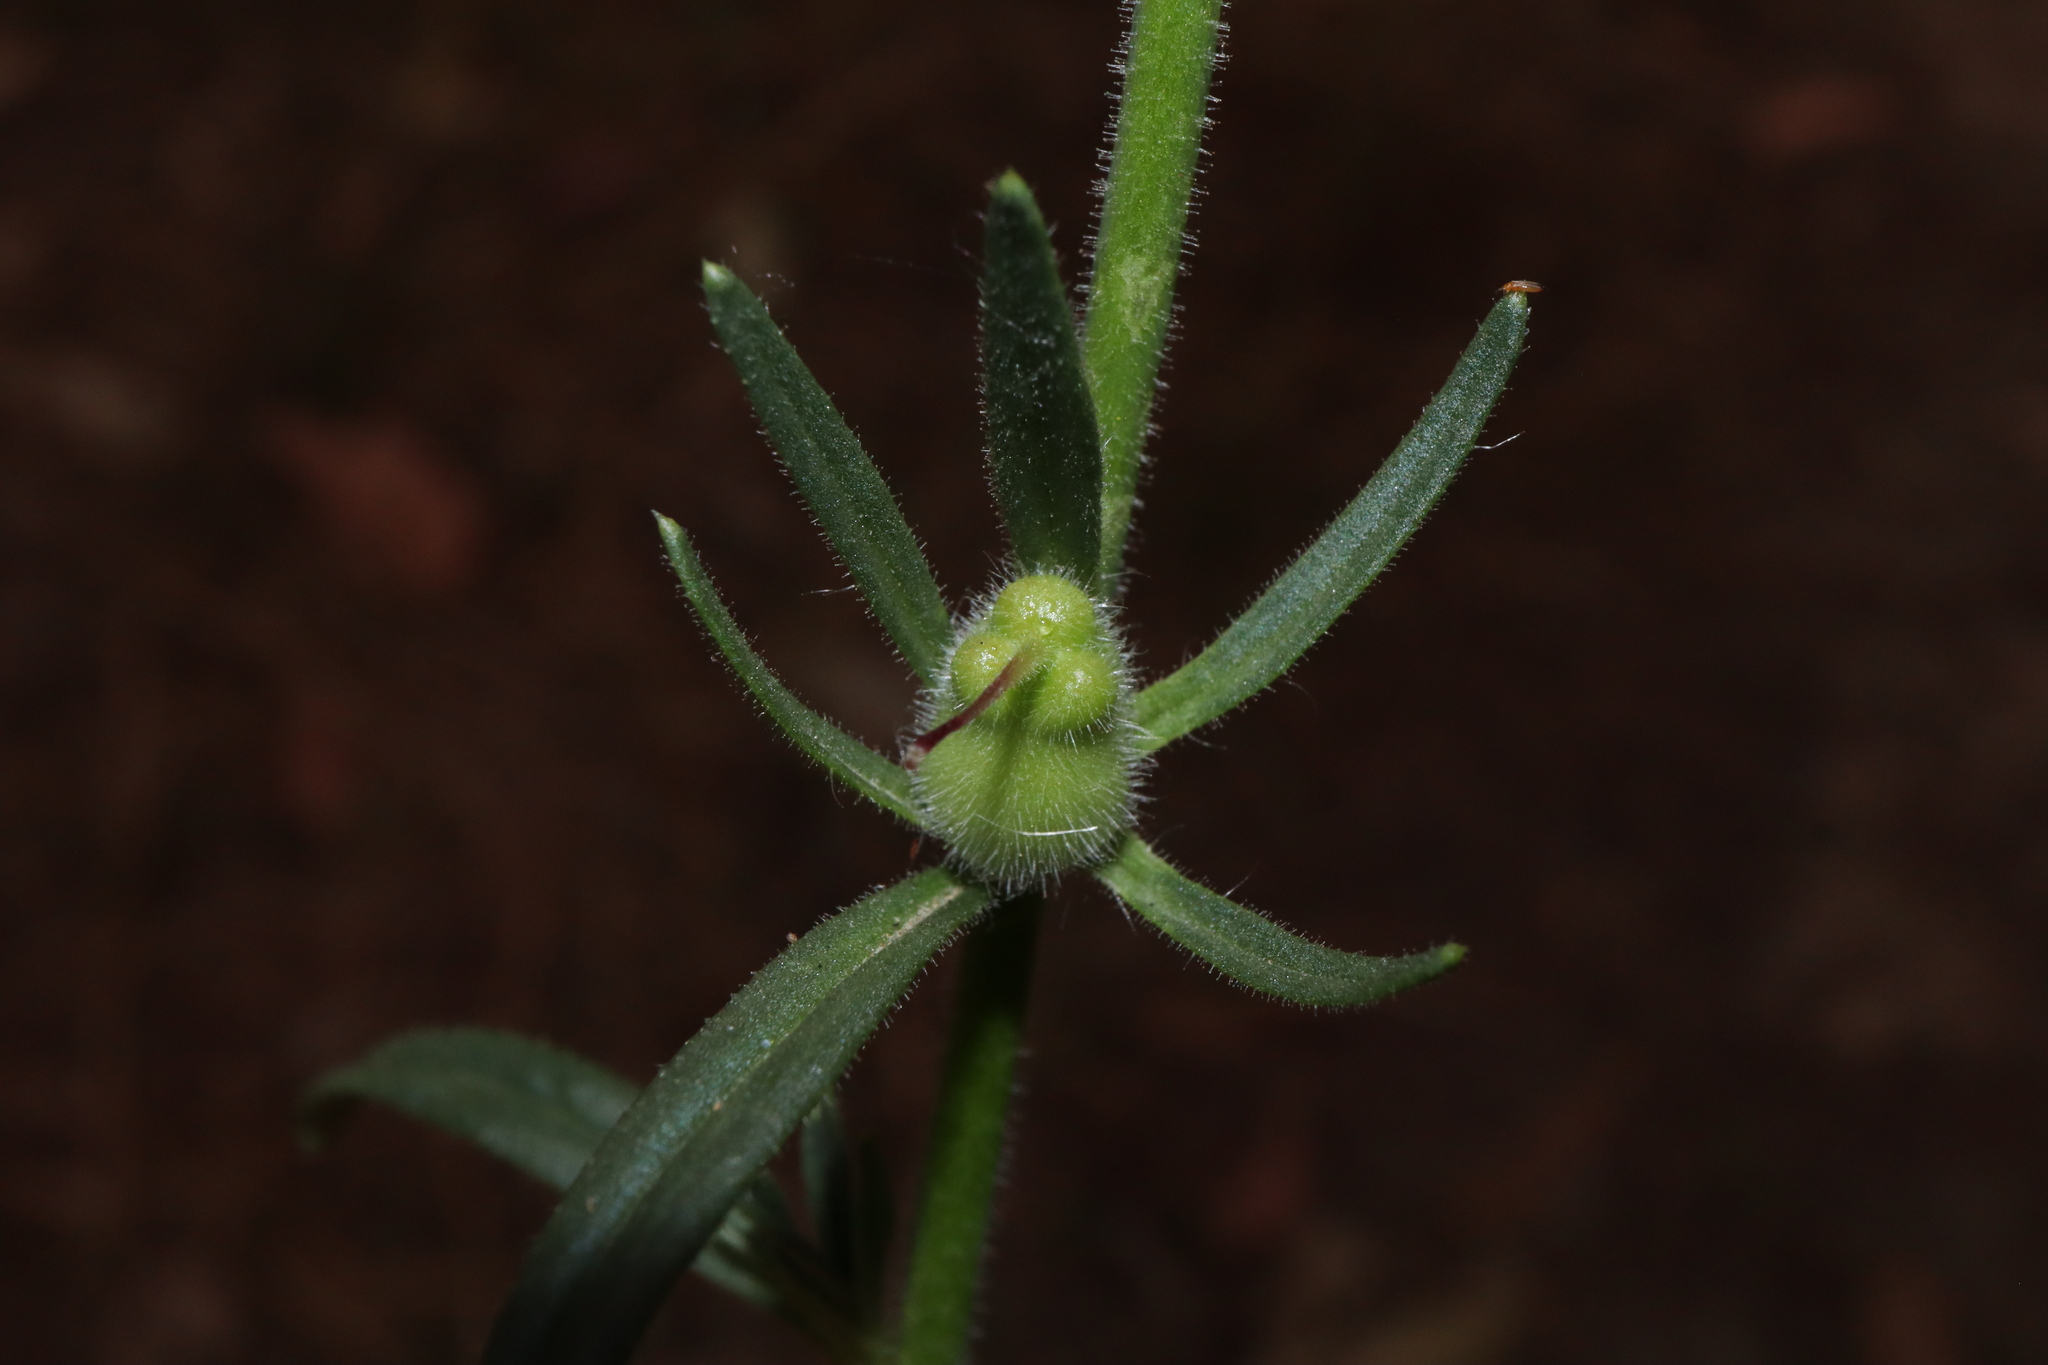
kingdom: Plantae
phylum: Tracheophyta
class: Magnoliopsida
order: Lamiales
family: Plantaginaceae
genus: Misopates
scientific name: Misopates orontium
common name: Weasel's-snout
